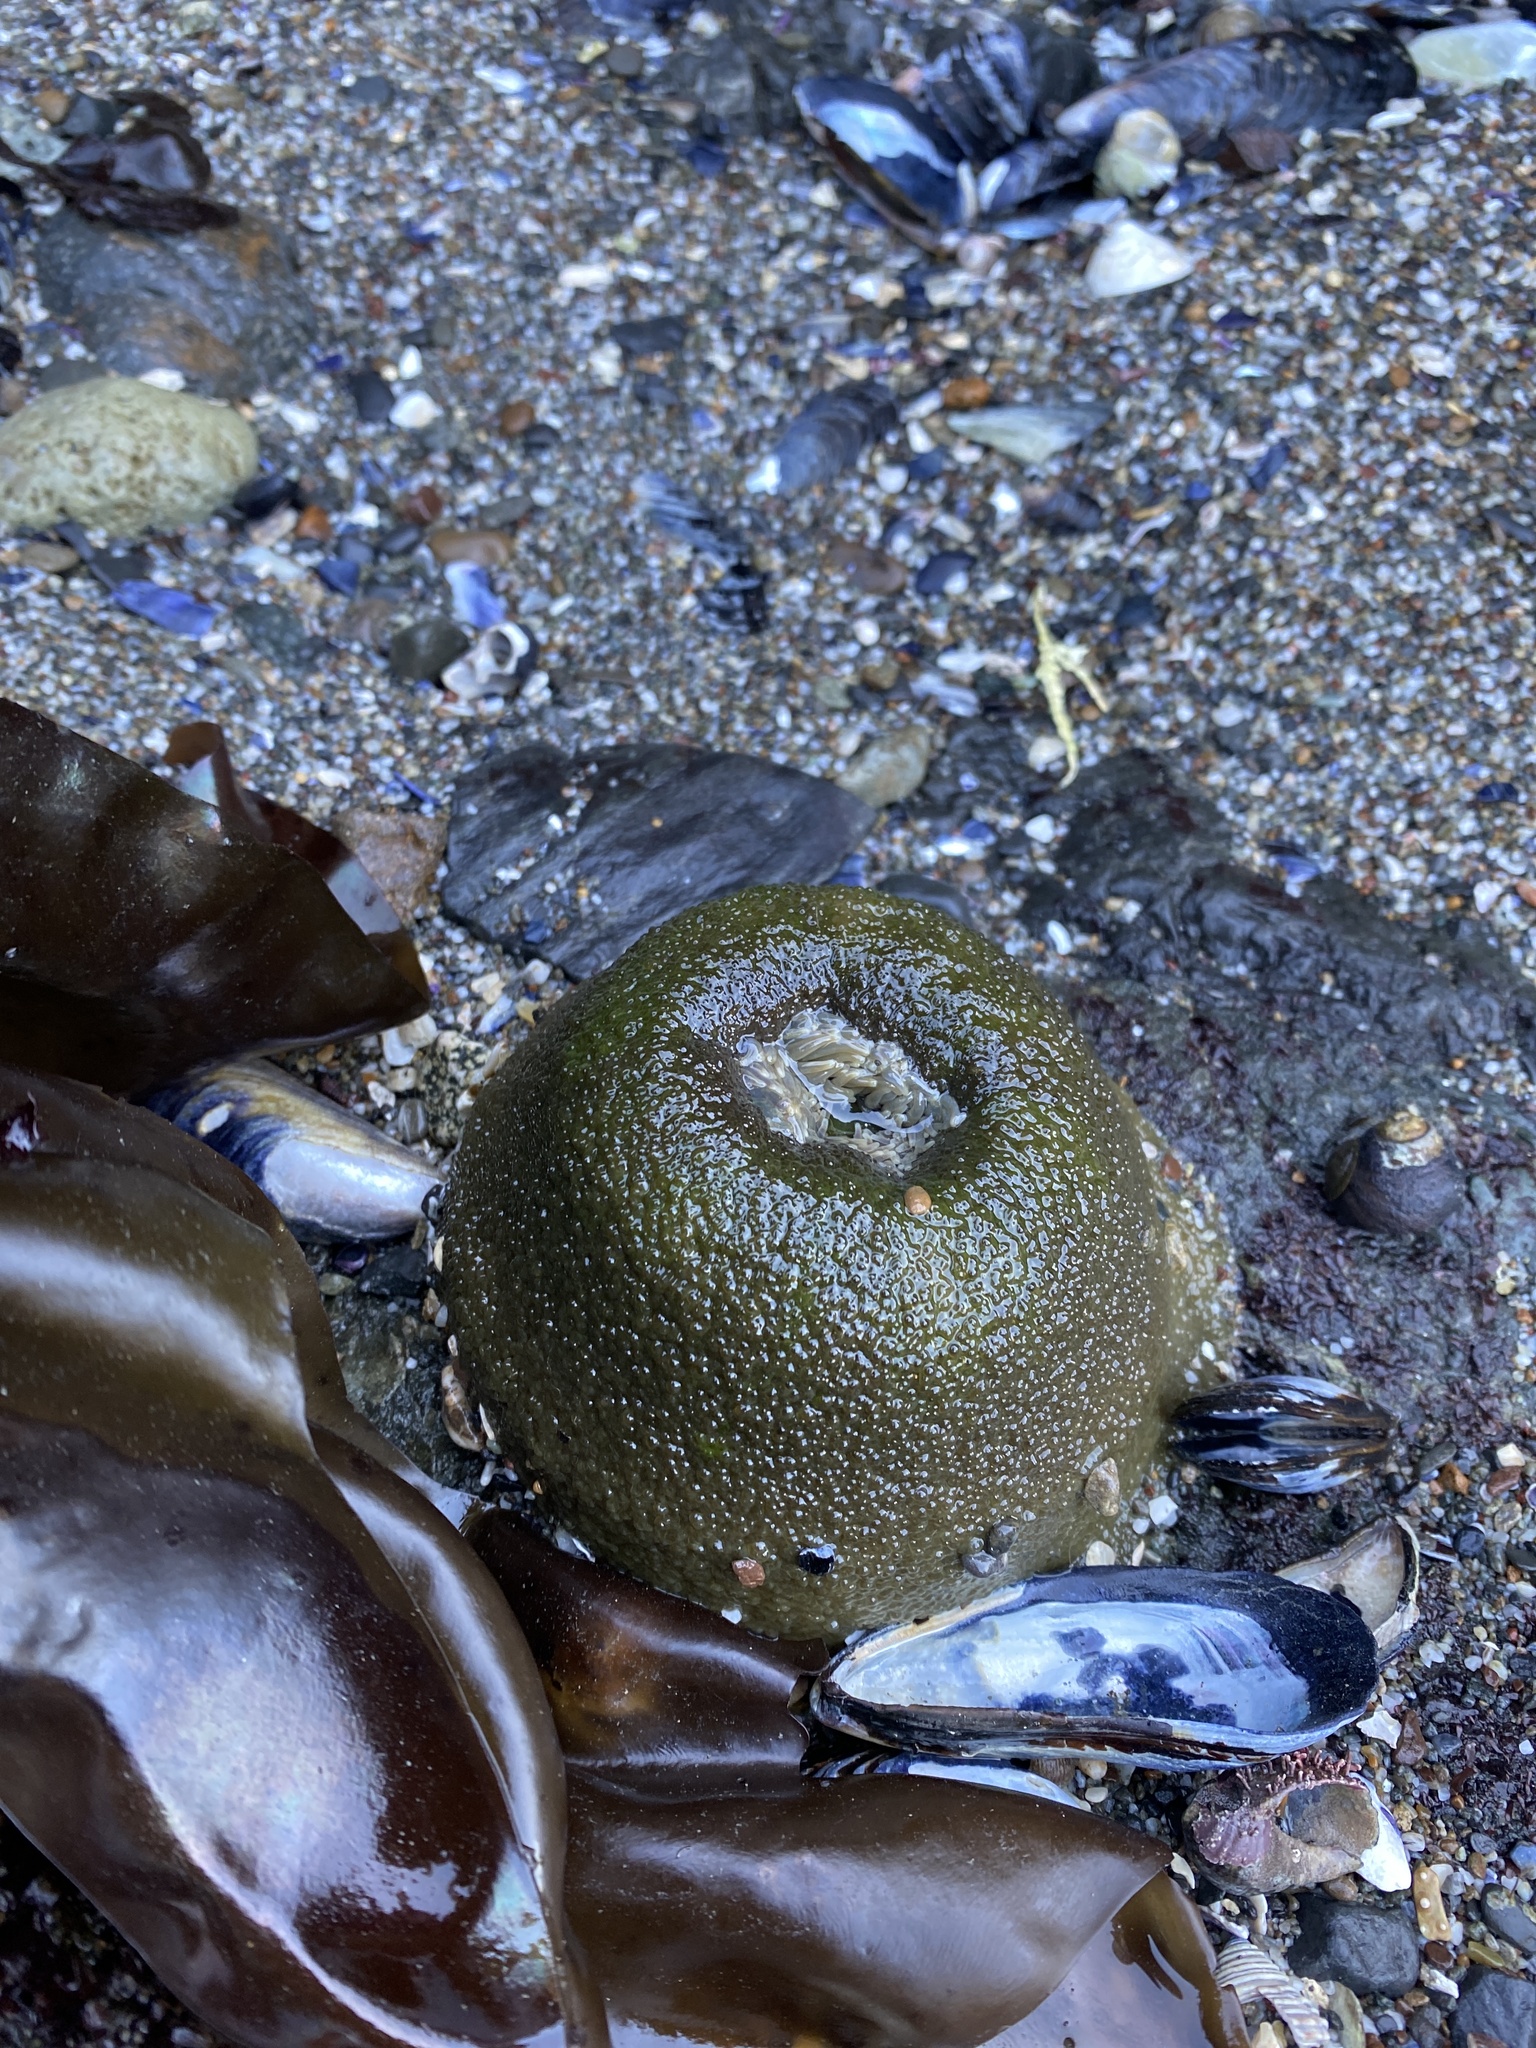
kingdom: Animalia
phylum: Cnidaria
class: Anthozoa
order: Actiniaria
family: Actiniidae
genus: Anthopleura
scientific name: Anthopleura xanthogrammica
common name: Giant green anemone
